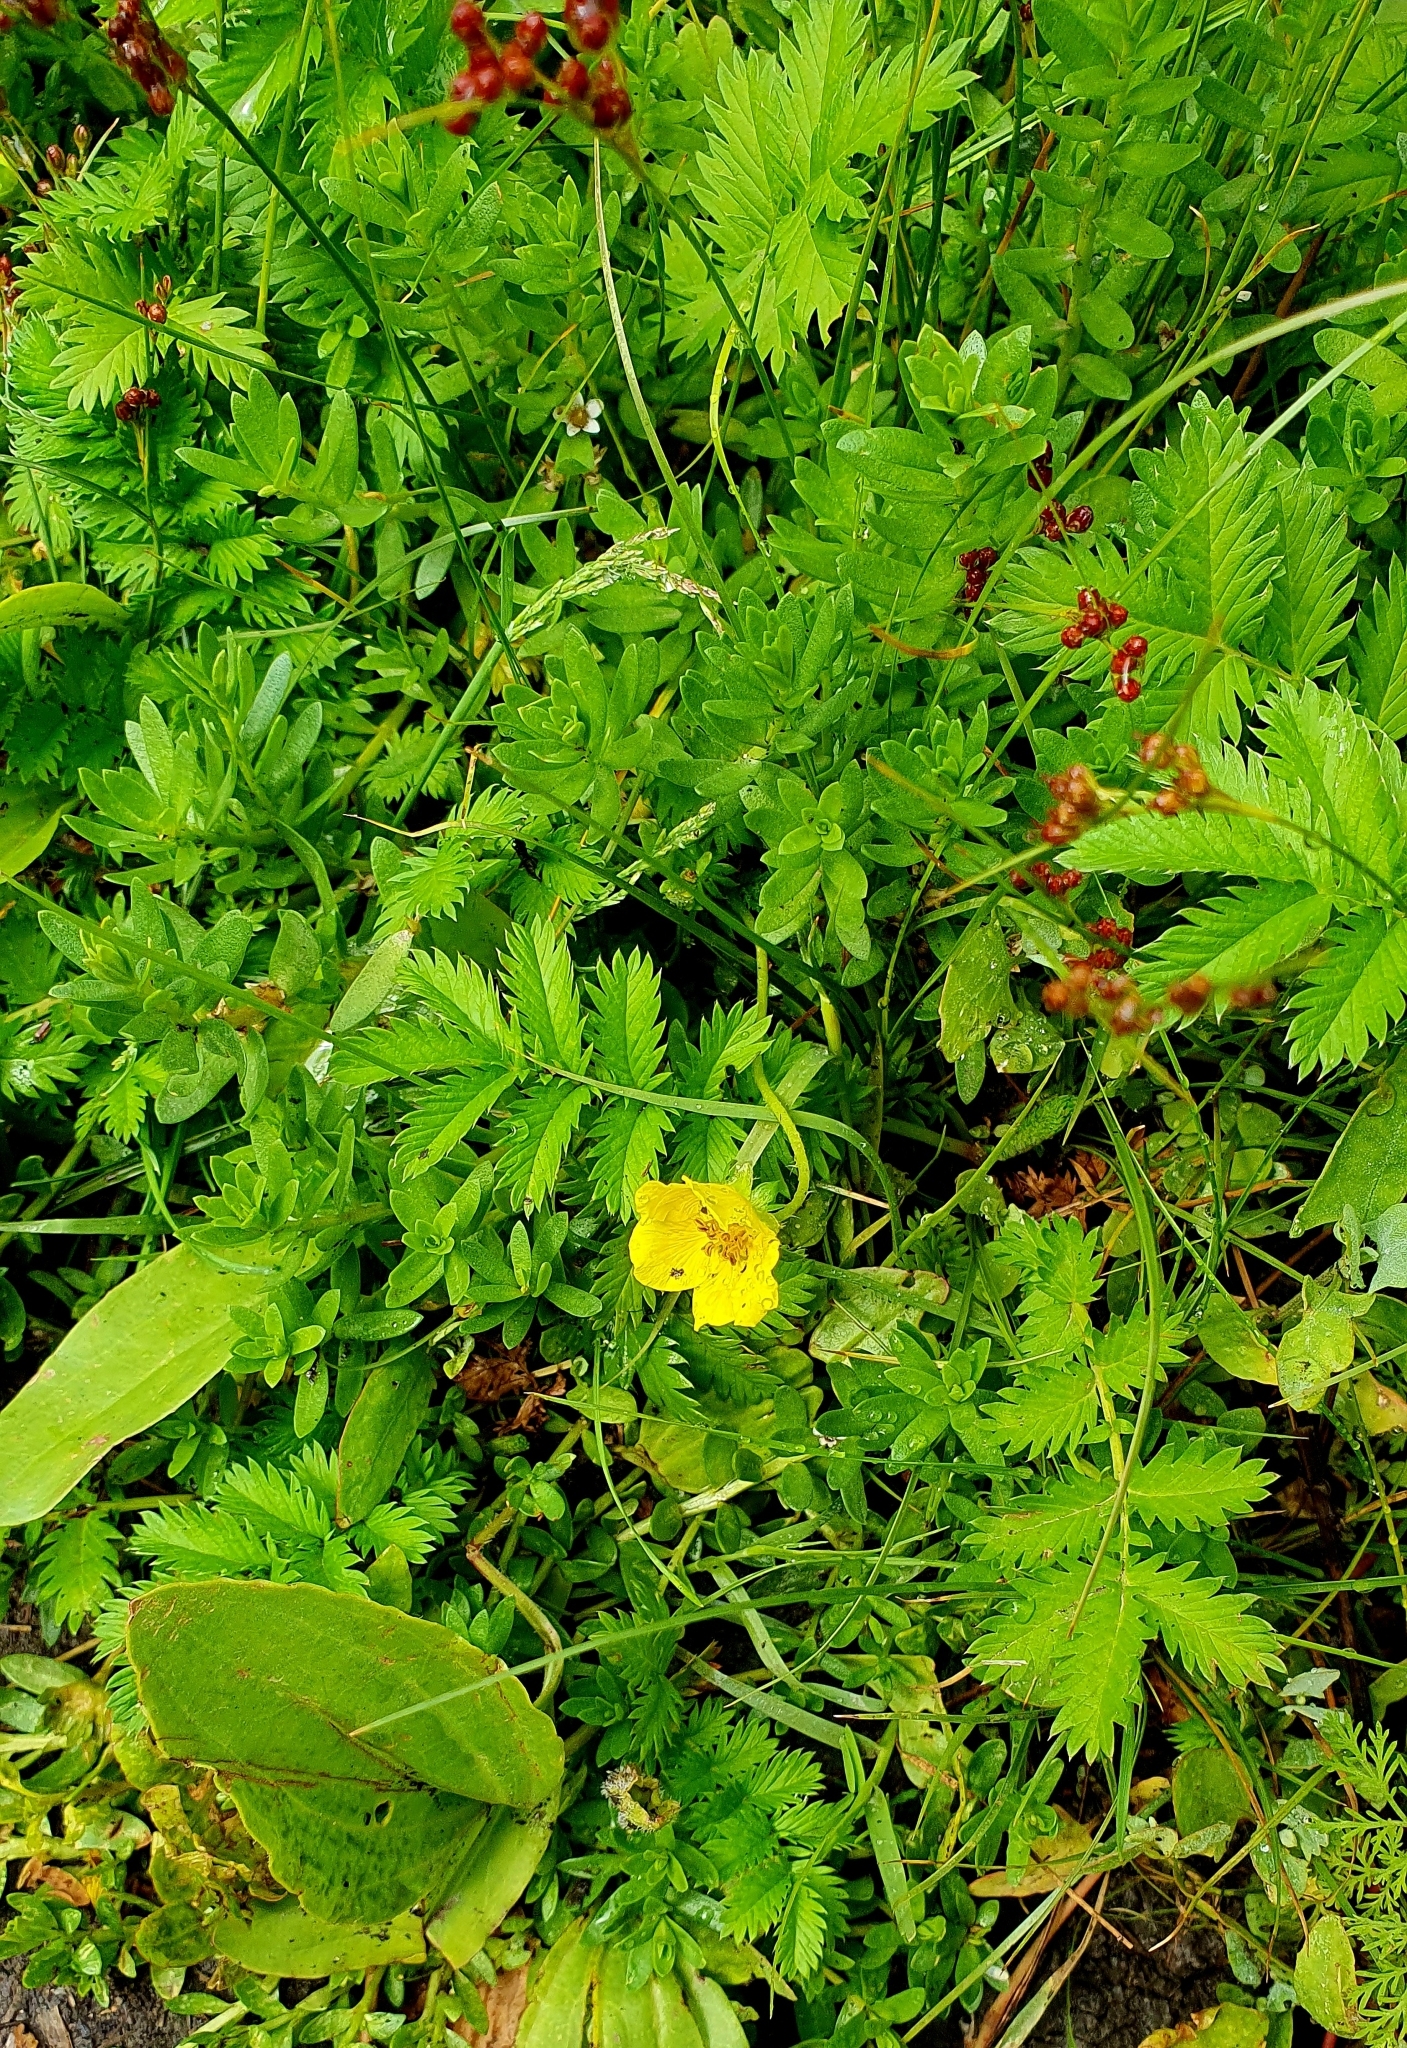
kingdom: Plantae
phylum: Tracheophyta
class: Magnoliopsida
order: Rosales
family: Rosaceae
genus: Argentina
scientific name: Argentina anserina
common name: Common silverweed
